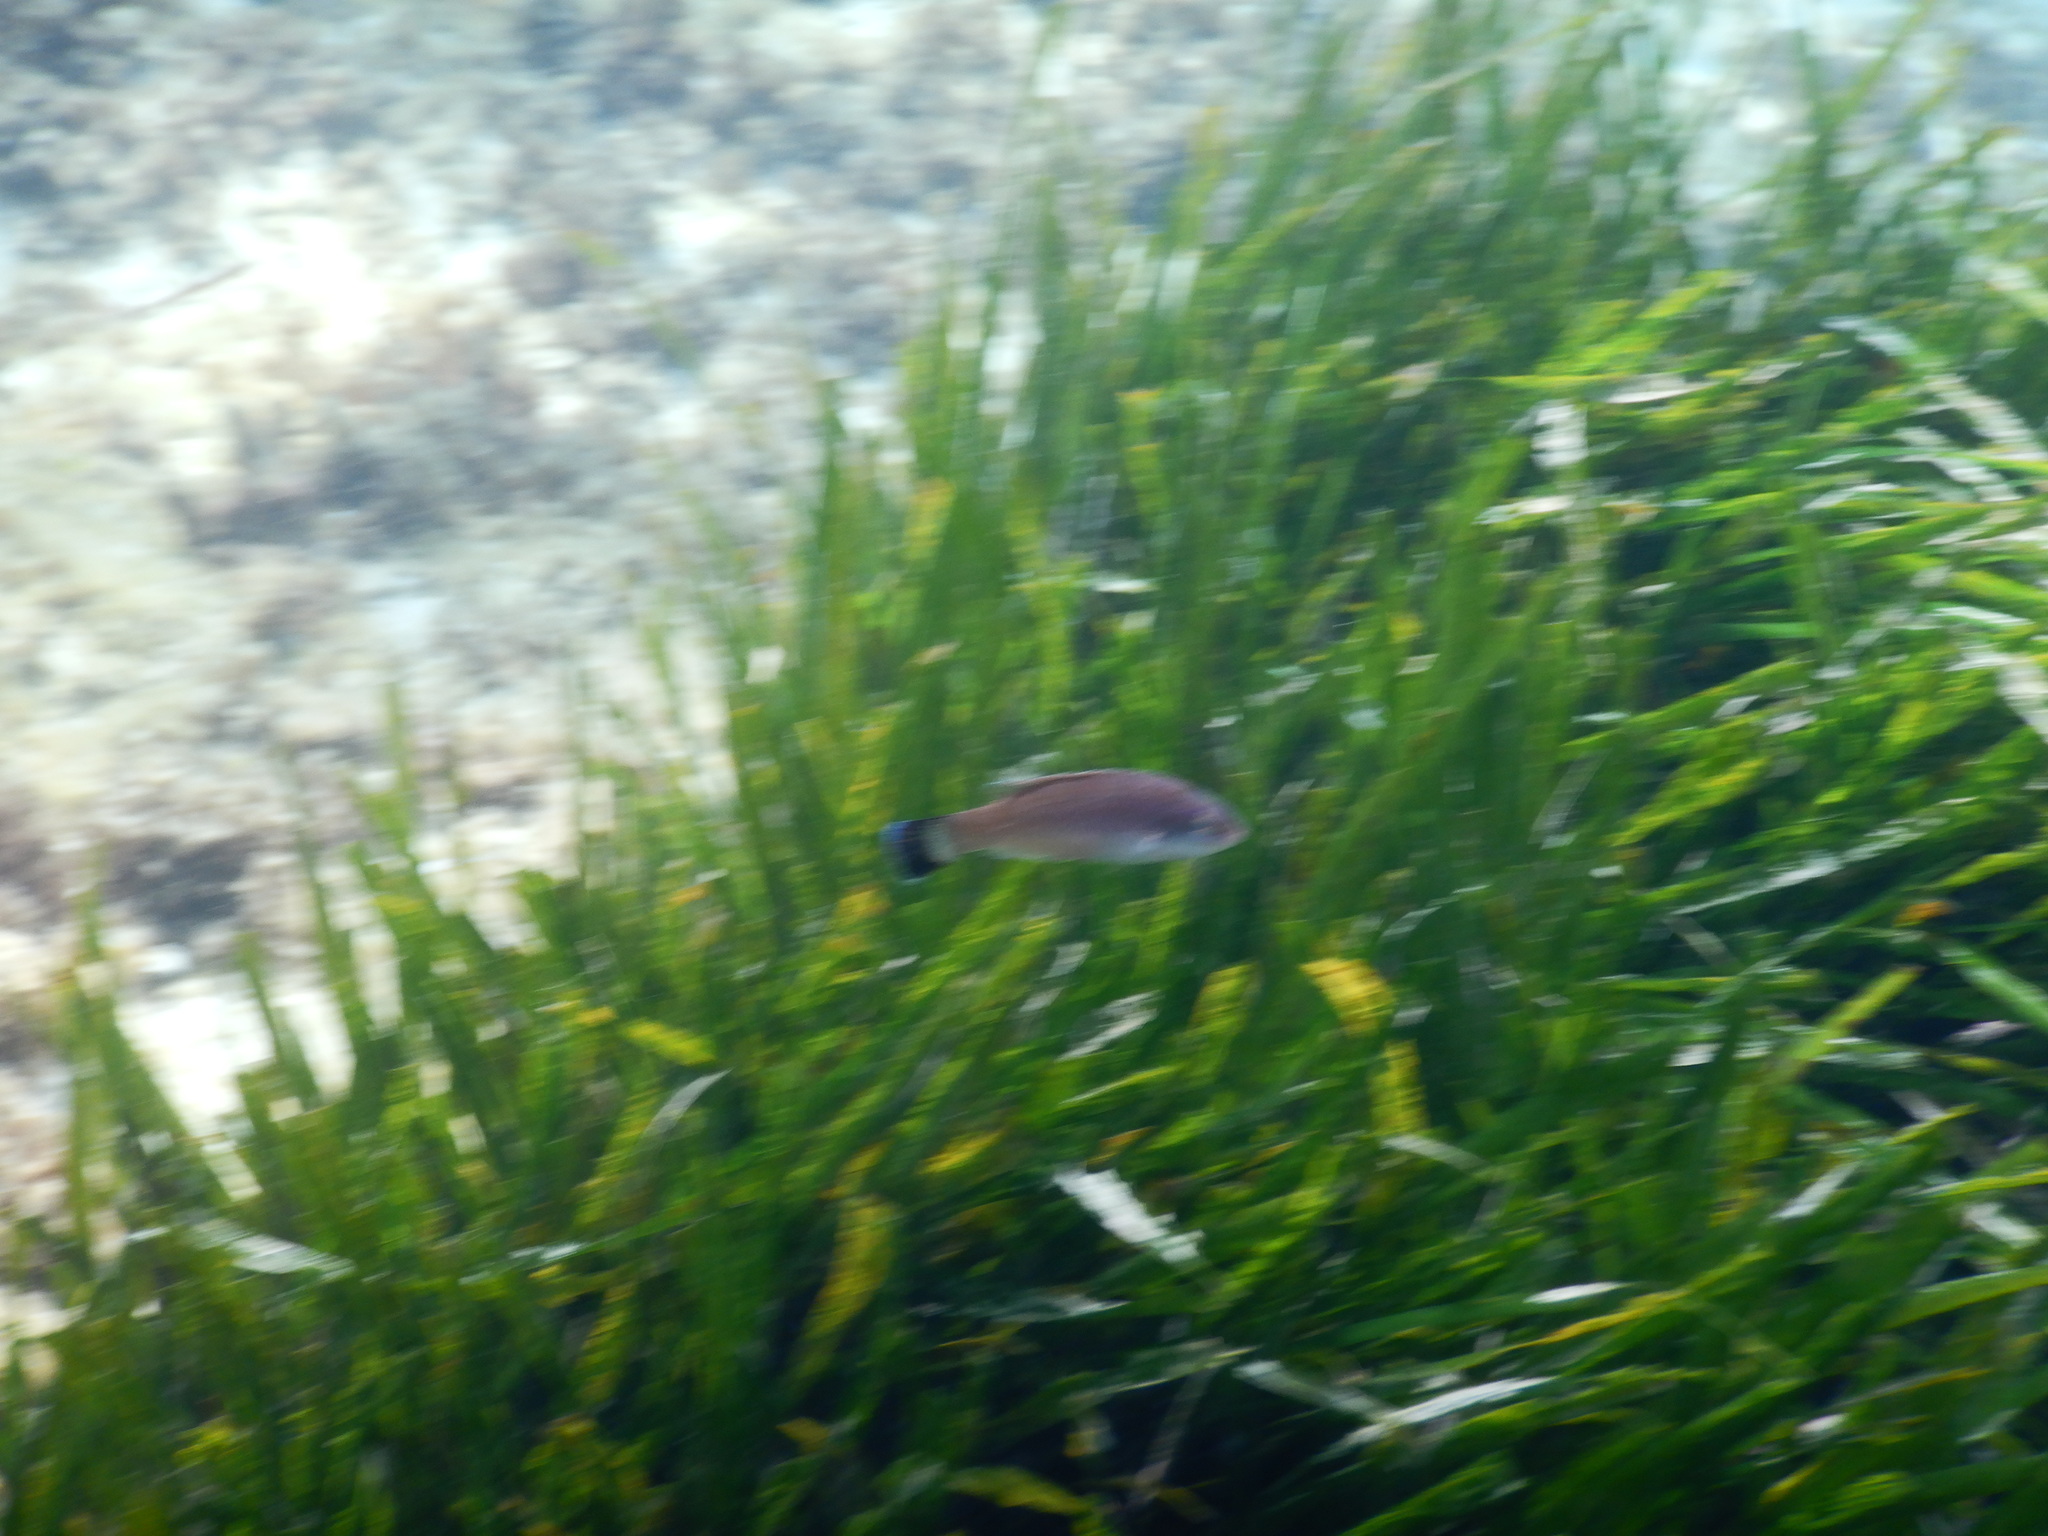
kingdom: Animalia
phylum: Chordata
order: Perciformes
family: Labridae
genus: Centrolabrus
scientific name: Centrolabrus melanocercus
